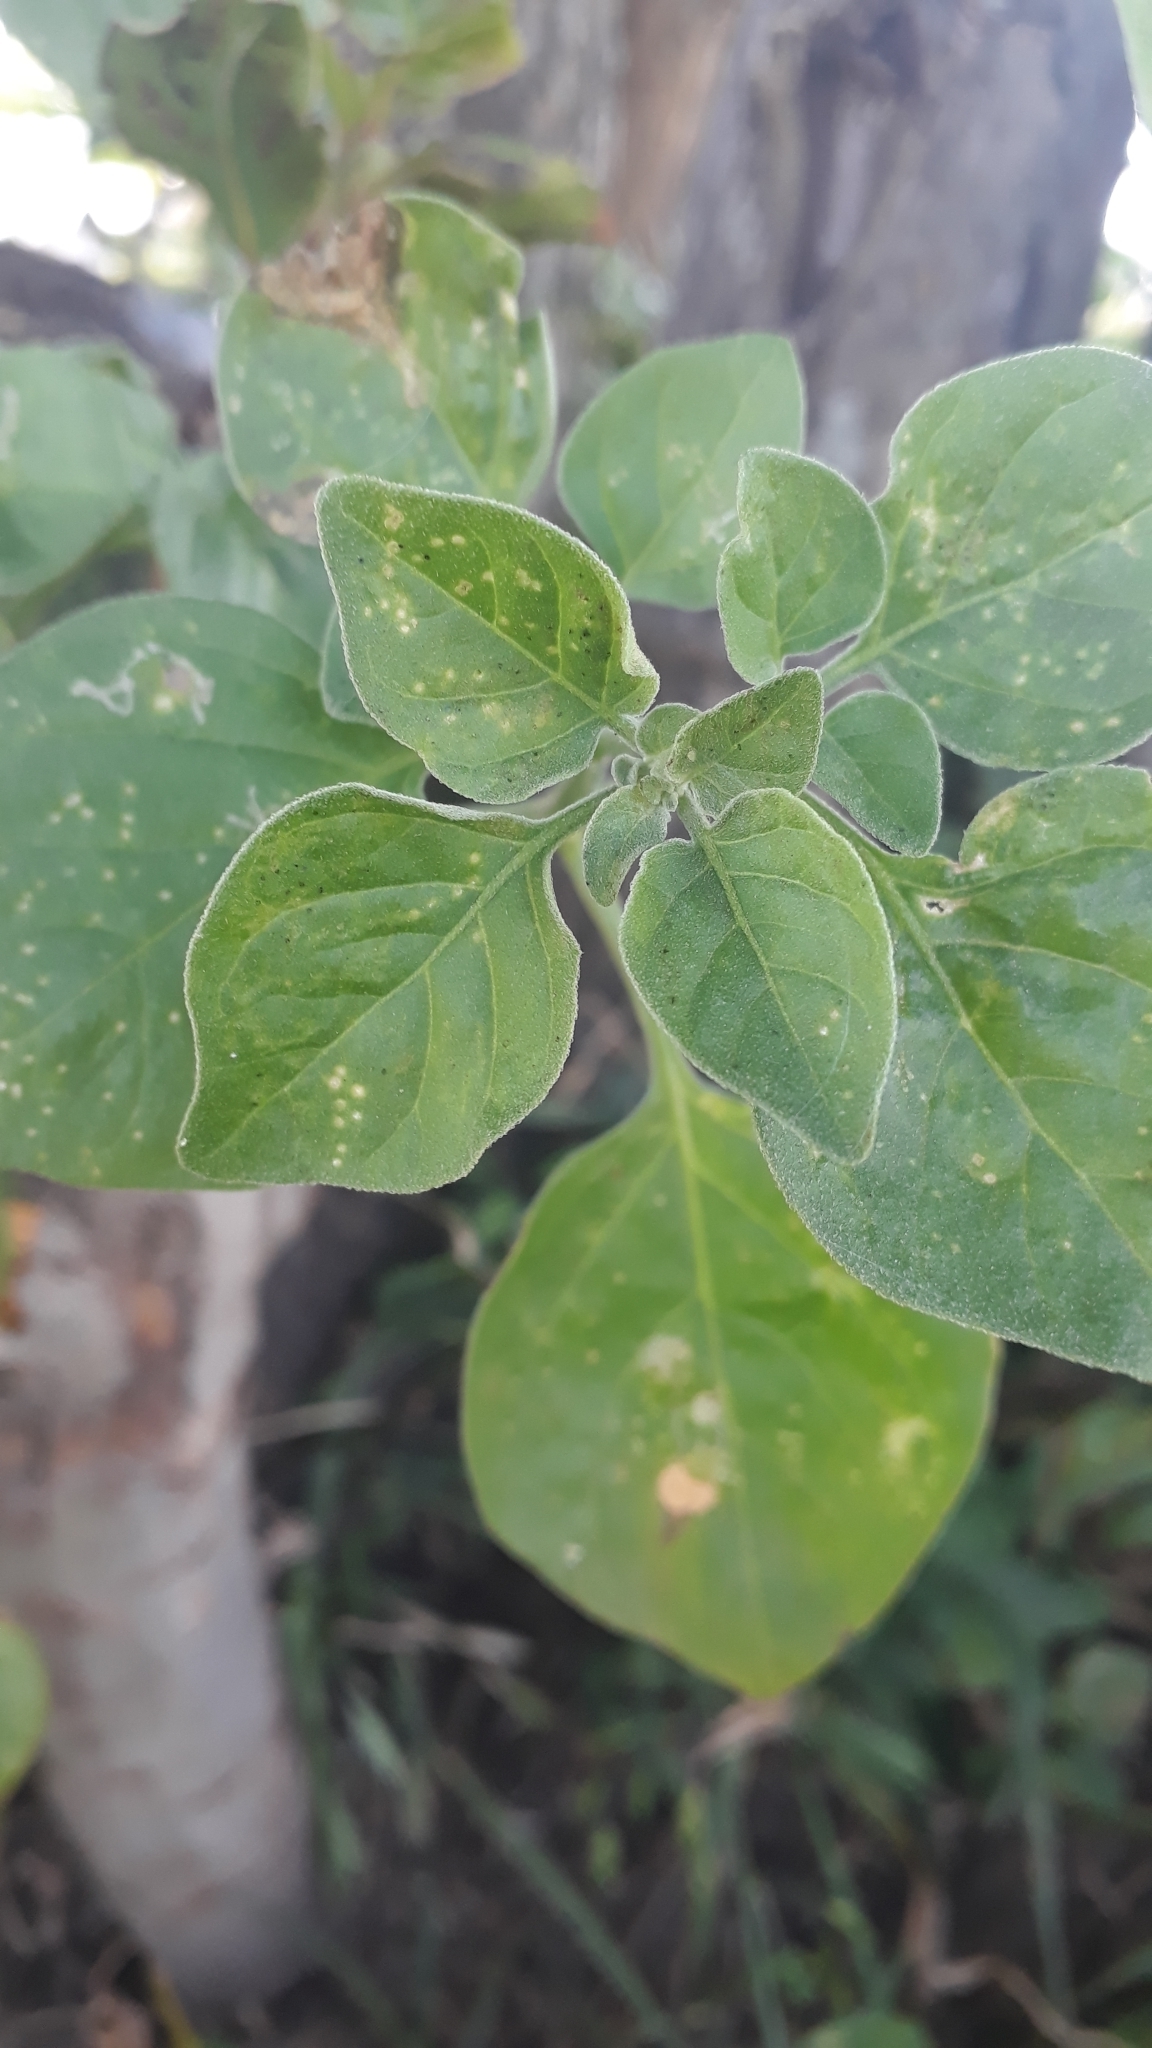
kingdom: Plantae
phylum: Tracheophyta
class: Magnoliopsida
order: Solanales
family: Solanaceae
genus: Salpichroa
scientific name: Salpichroa origanifolia
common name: Lily-of-the-valley-vine
